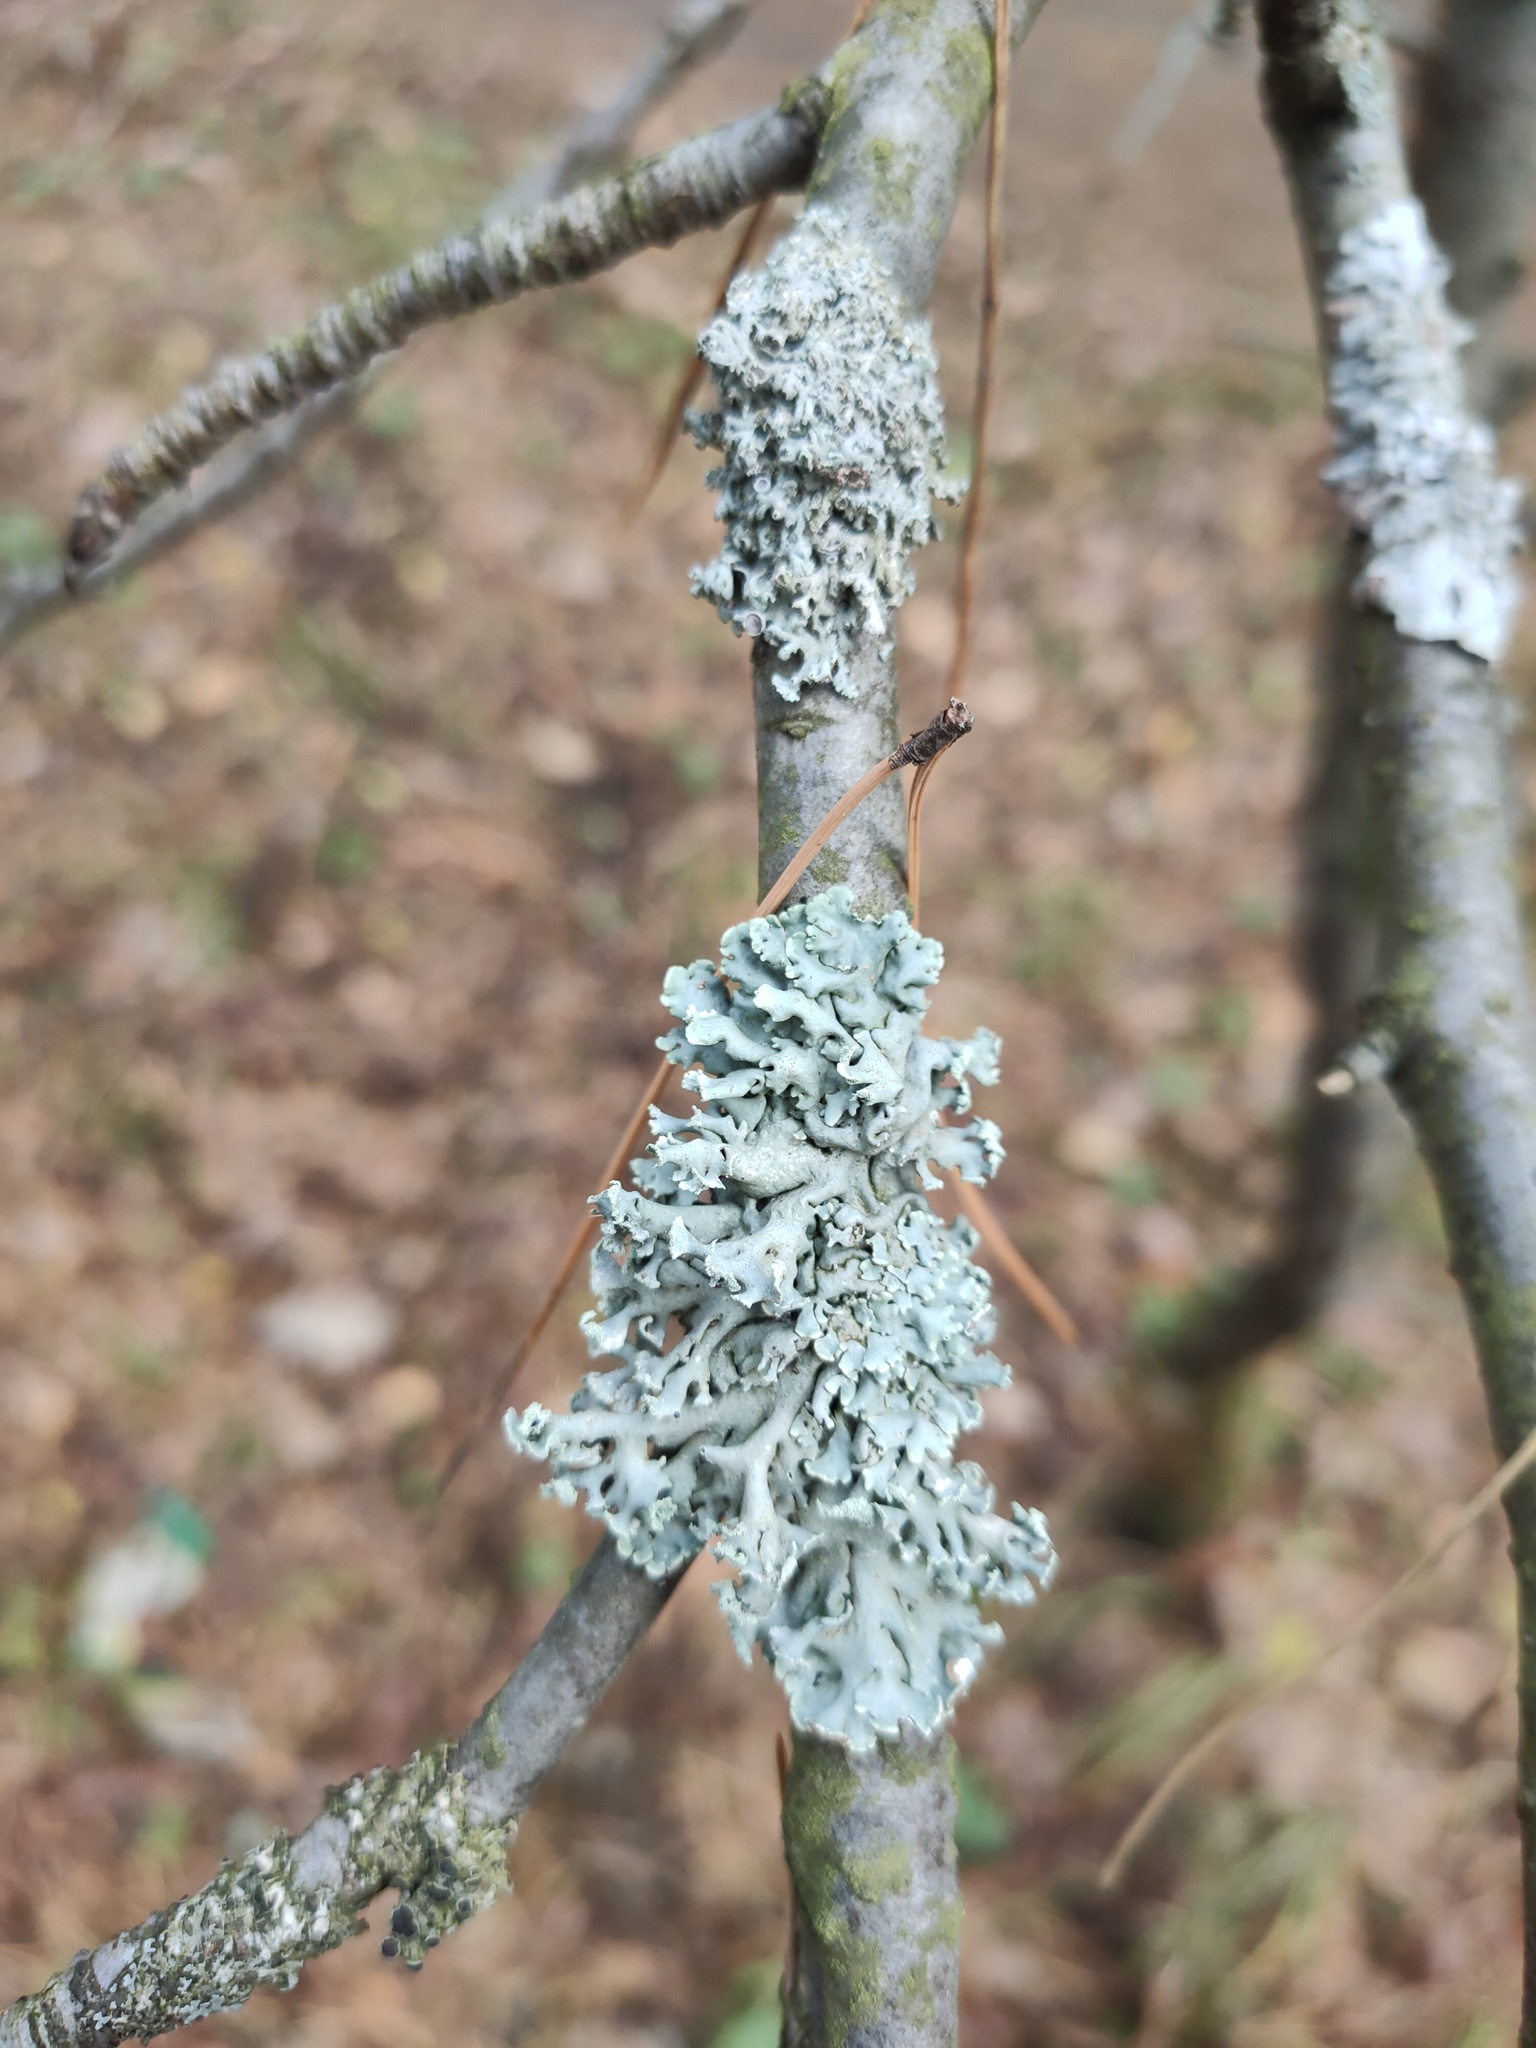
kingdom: Fungi
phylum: Ascomycota
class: Lecanoromycetes
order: Lecanorales
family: Parmeliaceae
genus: Hypogymnia
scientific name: Hypogymnia physodes
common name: Dark crottle
